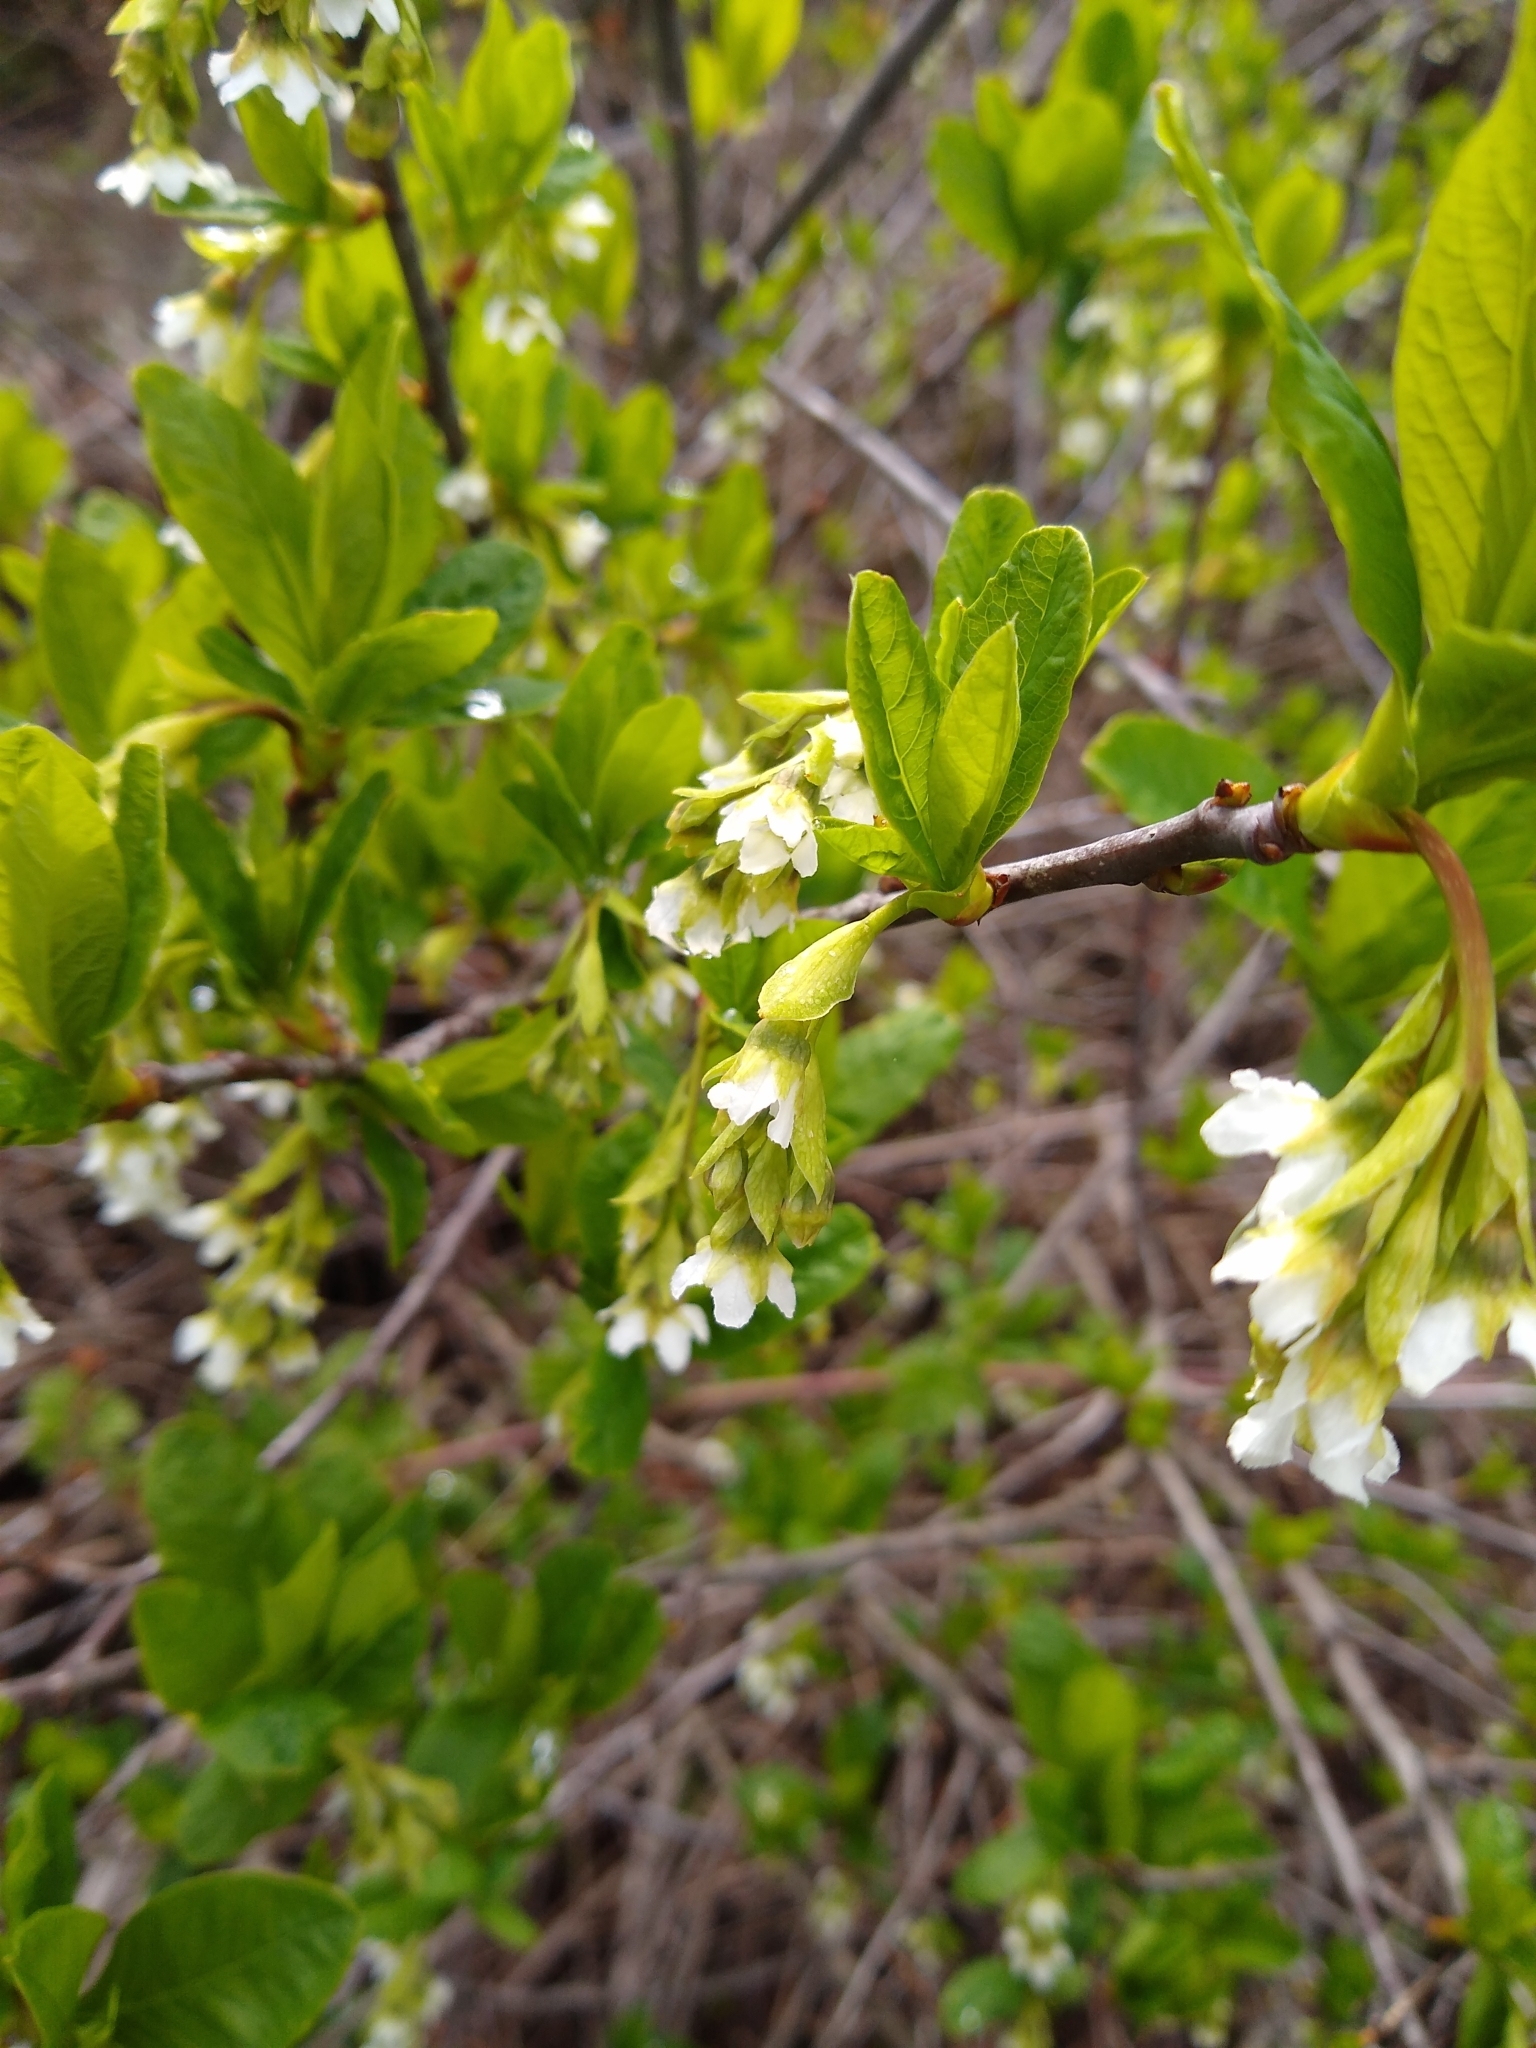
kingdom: Plantae
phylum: Tracheophyta
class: Magnoliopsida
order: Rosales
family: Rosaceae
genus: Oemleria
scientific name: Oemleria cerasiformis
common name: Osoberry
